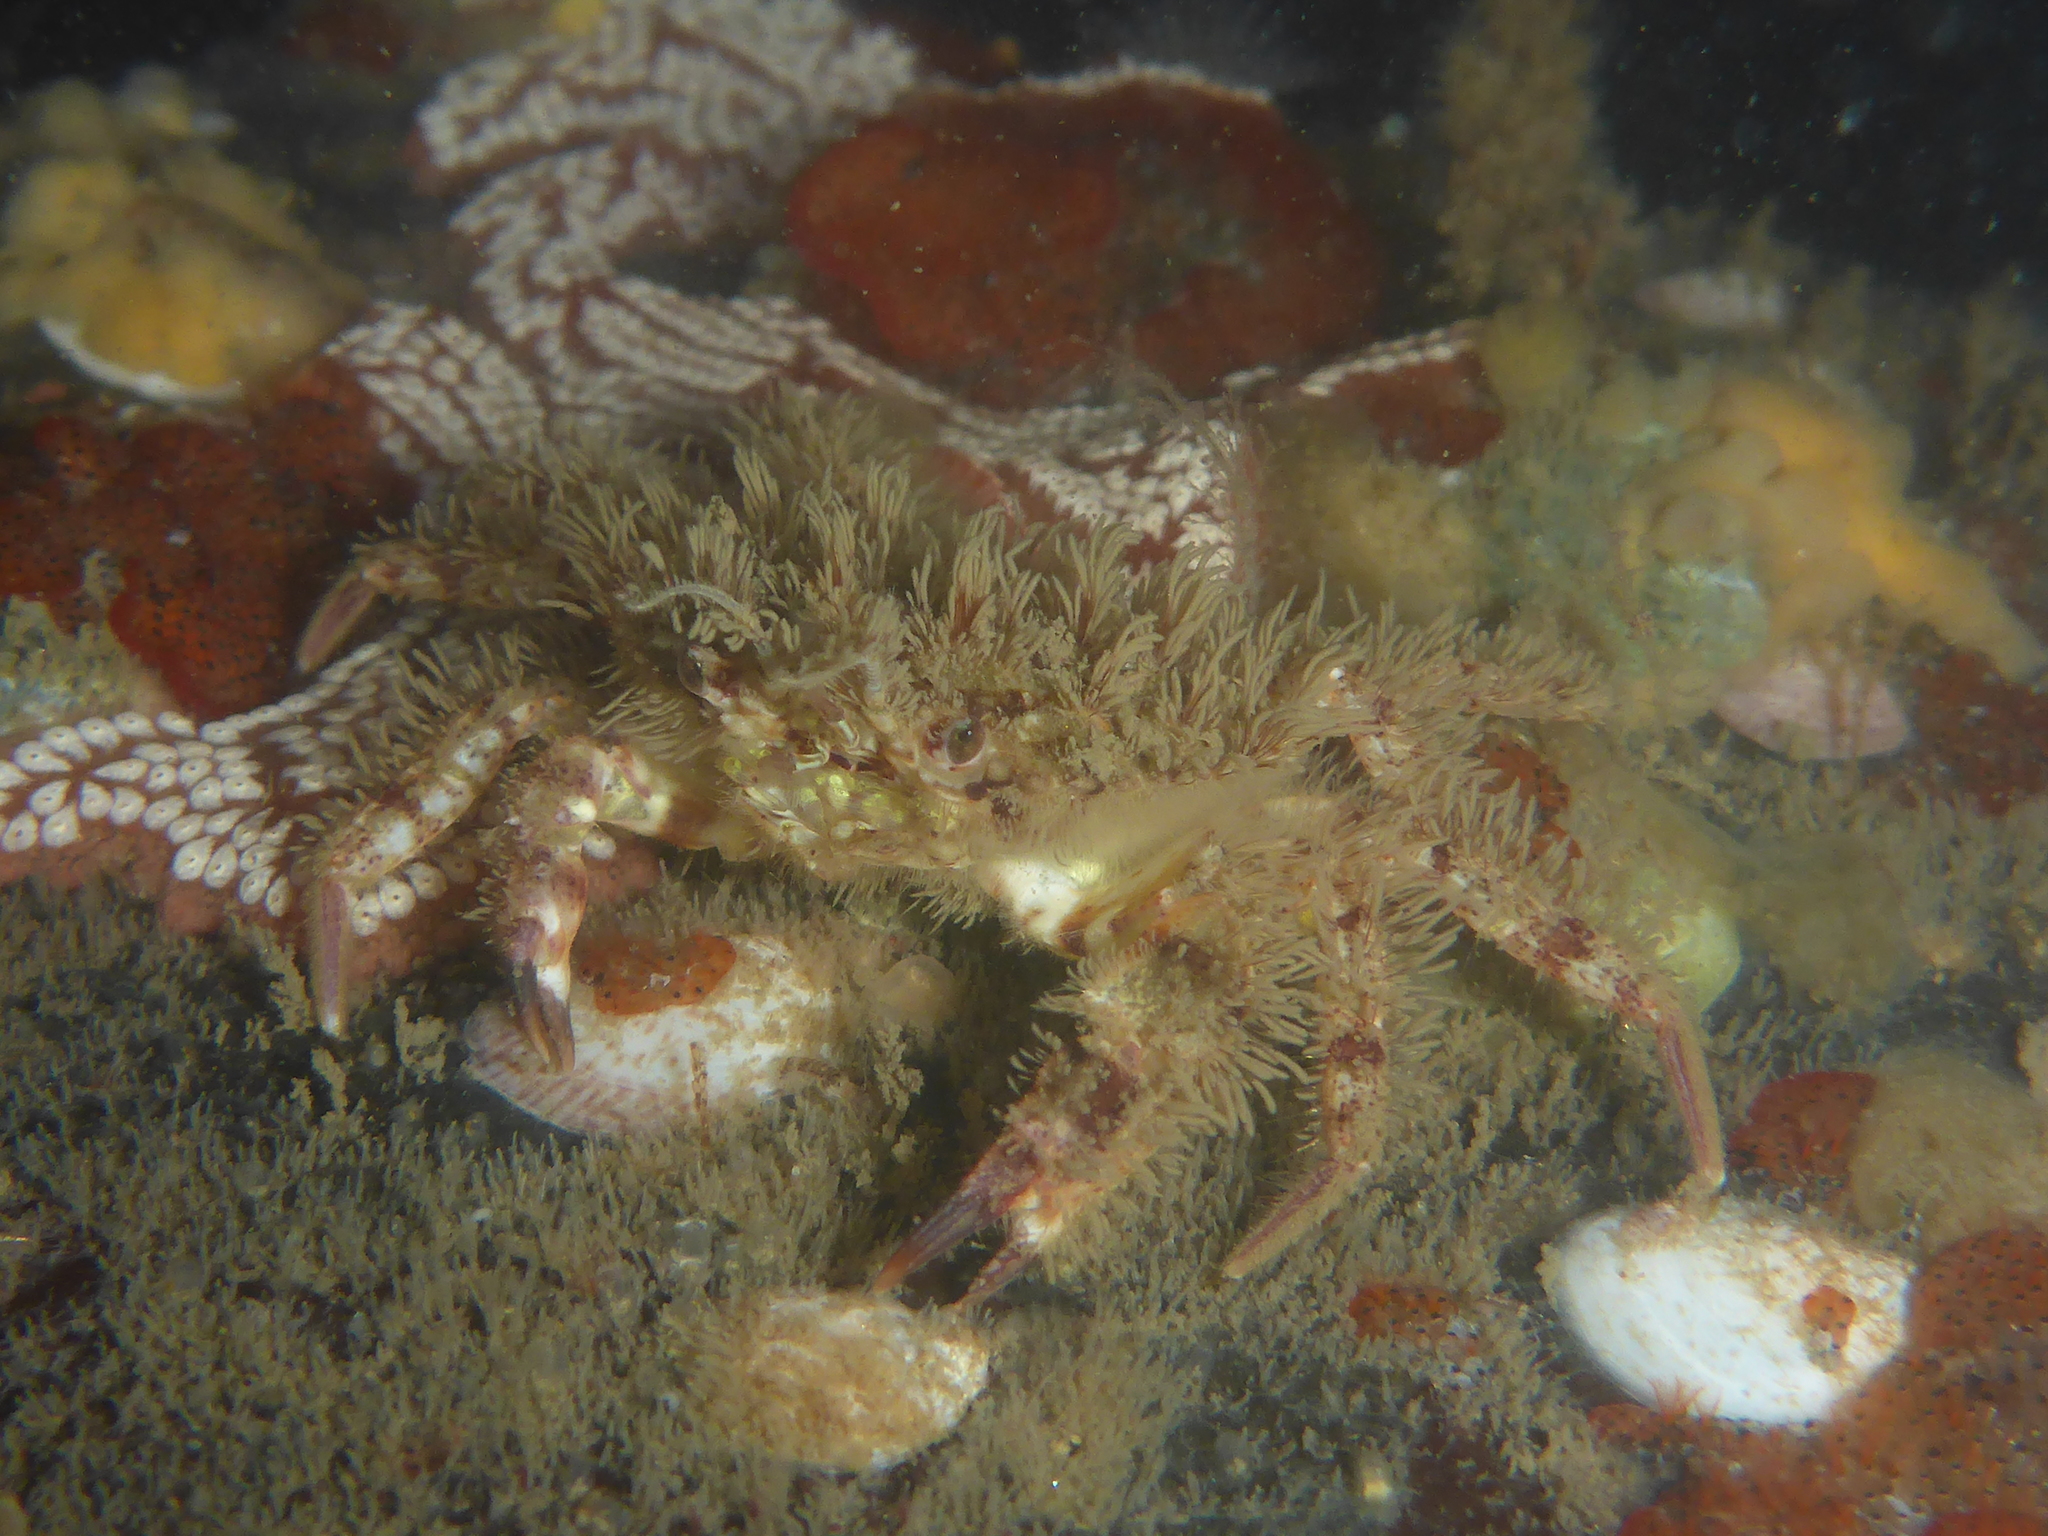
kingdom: Animalia
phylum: Arthropoda
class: Malacostraca
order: Decapoda
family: Cancridae
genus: Romaleon
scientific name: Romaleon antennarium
